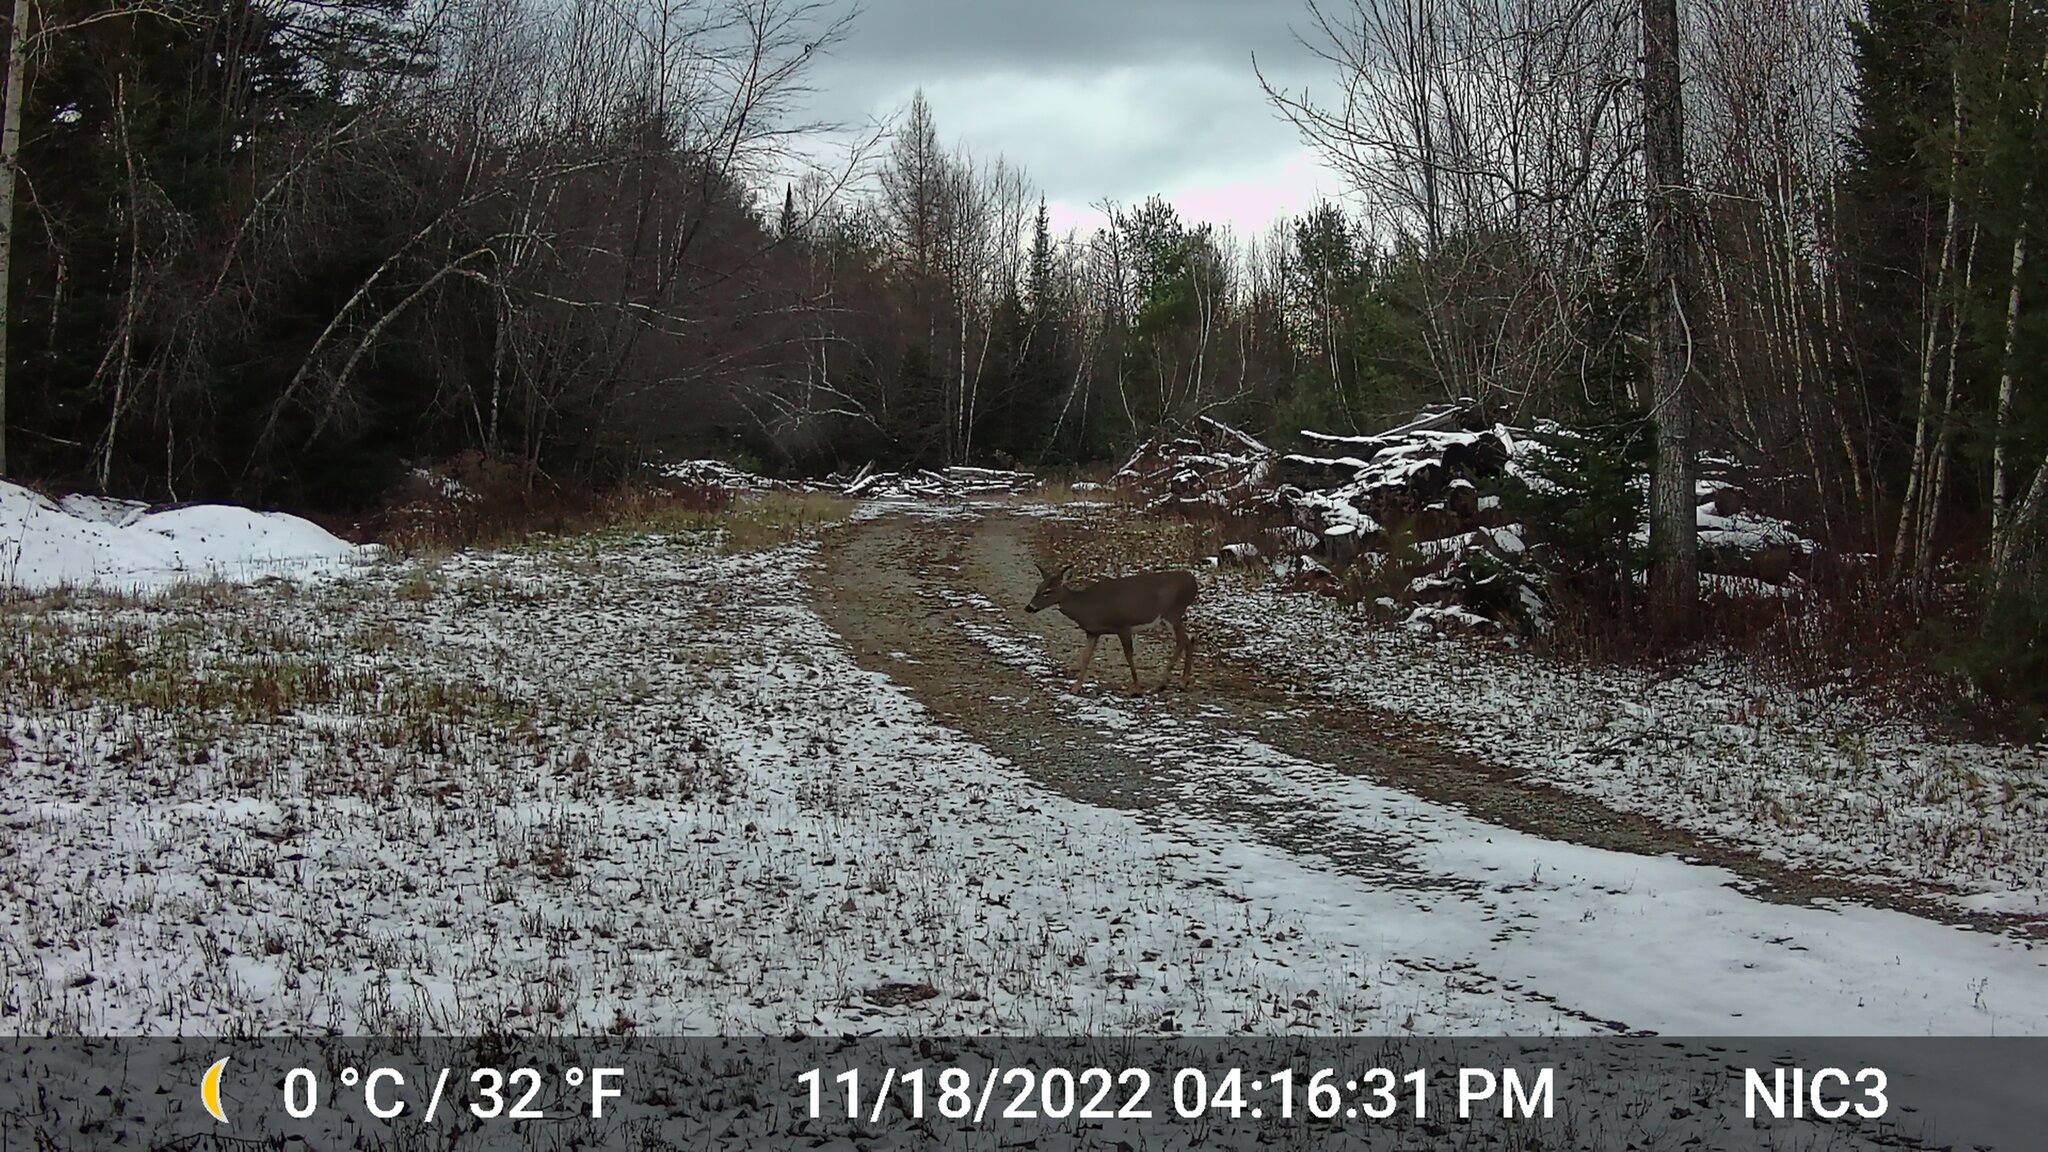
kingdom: Animalia
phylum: Chordata
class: Mammalia
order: Artiodactyla
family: Cervidae
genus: Odocoileus
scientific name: Odocoileus virginianus
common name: White-tailed deer
